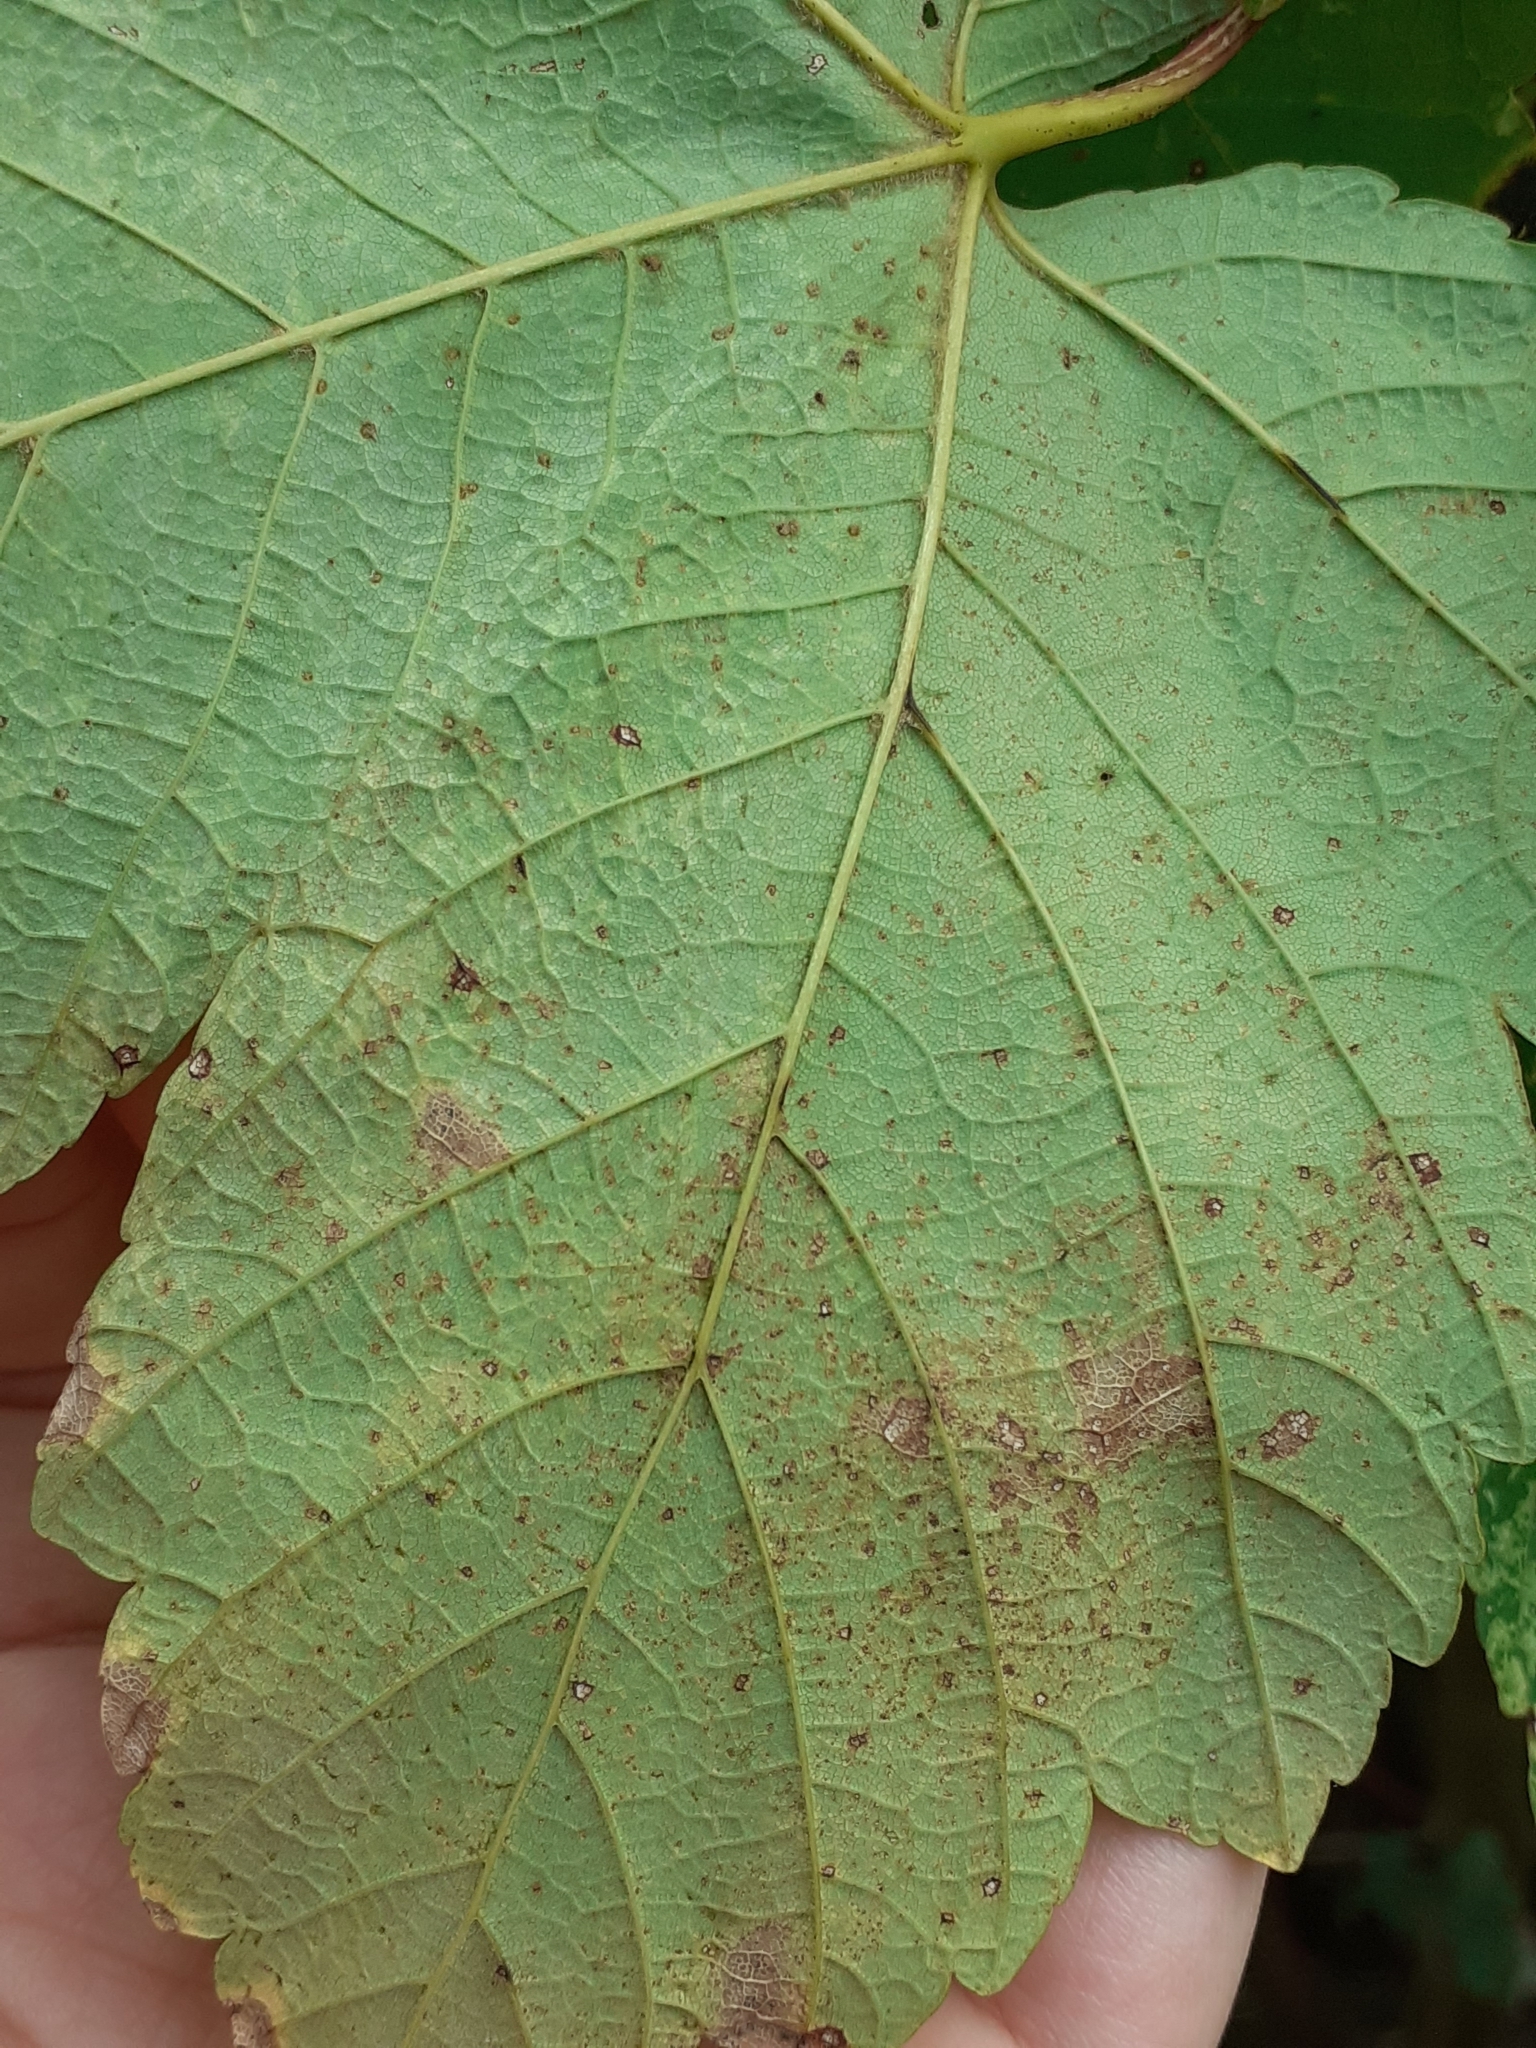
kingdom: Animalia
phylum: Arthropoda
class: Arachnida
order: Trombidiformes
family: Eriophyidae
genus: Aceria
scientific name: Aceria cephaloneus
